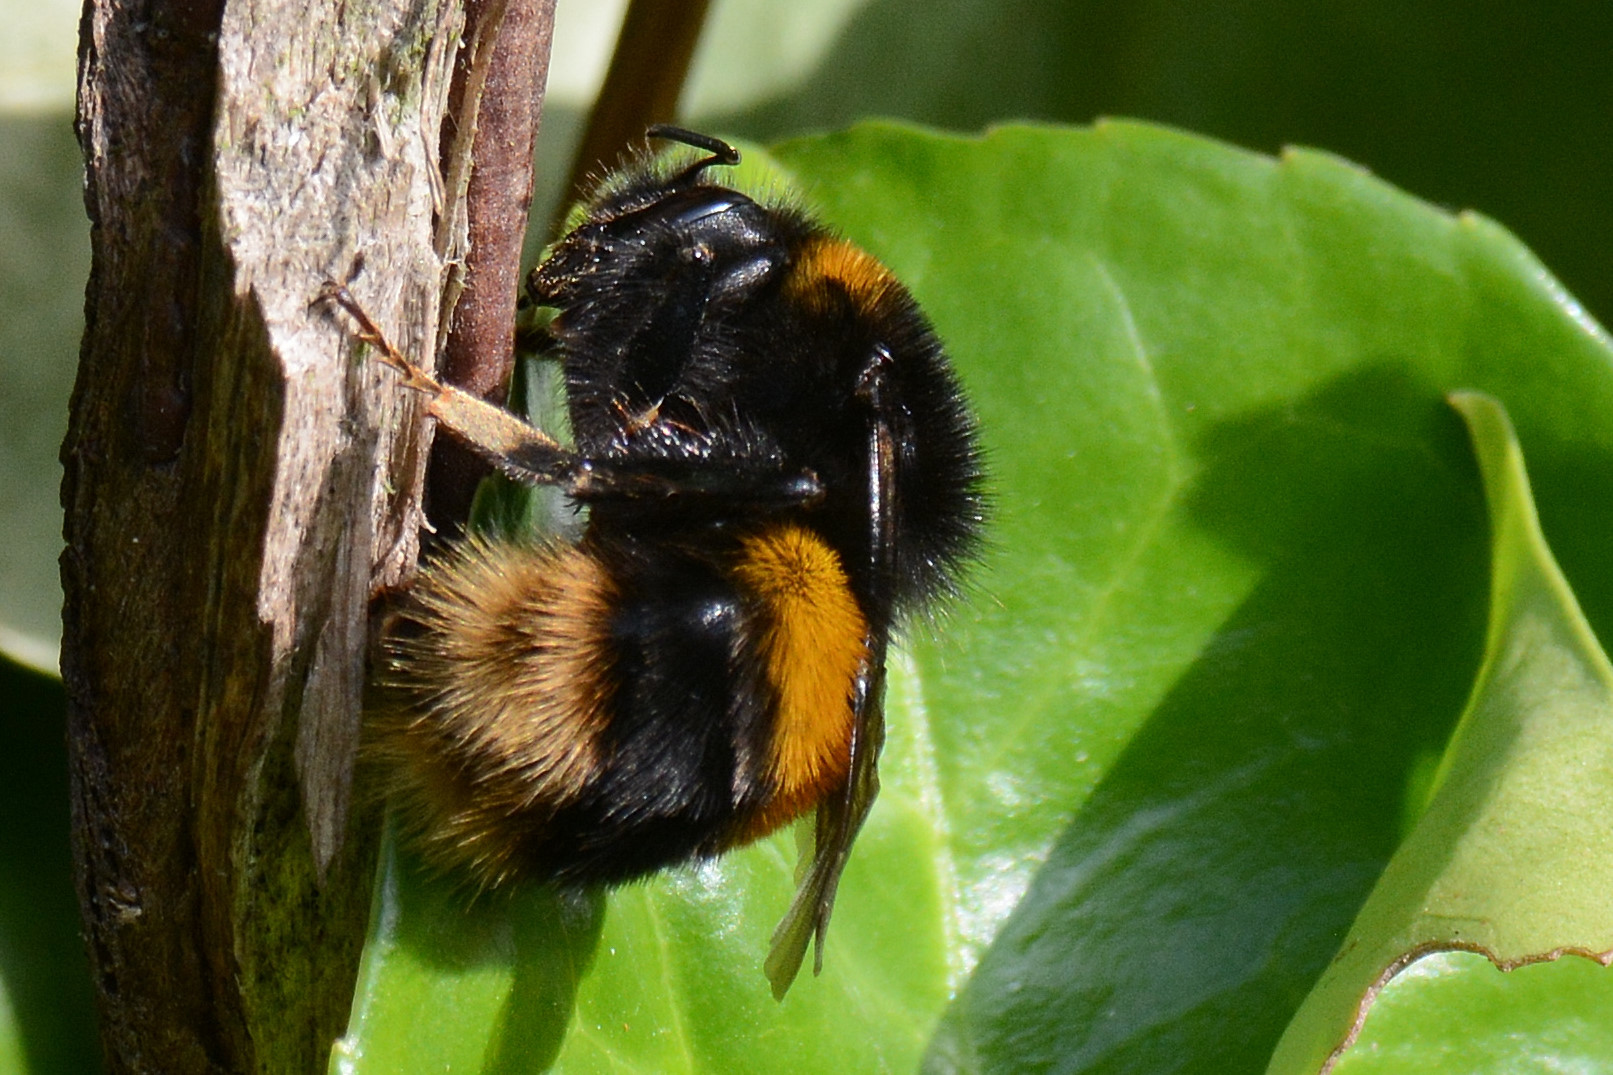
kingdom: Animalia
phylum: Arthropoda
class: Insecta
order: Hymenoptera
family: Apidae
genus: Bombus
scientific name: Bombus terrestris
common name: Buff-tailed bumblebee
